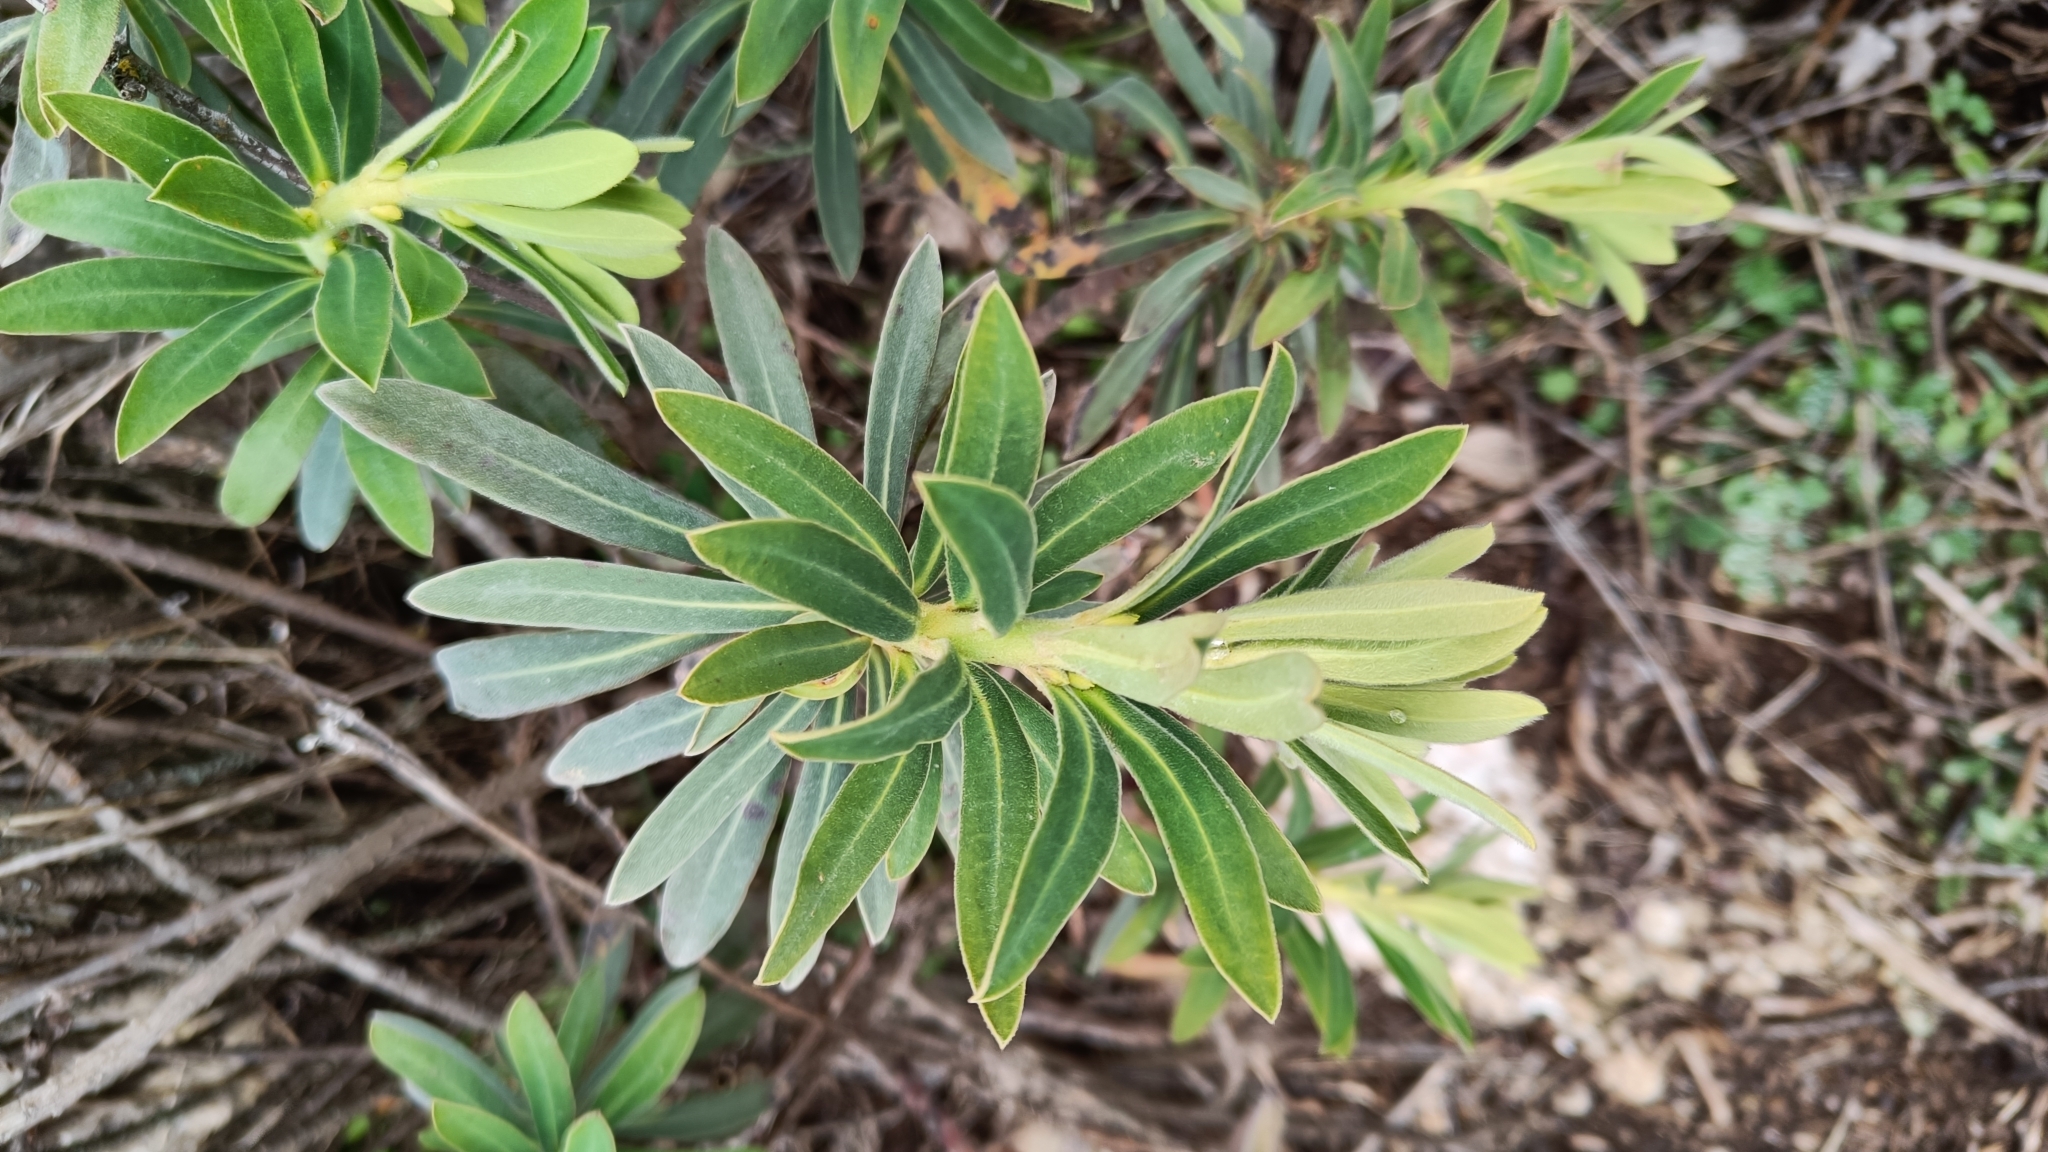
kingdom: Plantae
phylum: Tracheophyta
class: Magnoliopsida
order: Malpighiales
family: Euphorbiaceae
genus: Euphorbia
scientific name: Euphorbia characias
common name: Mediterranean spurge
